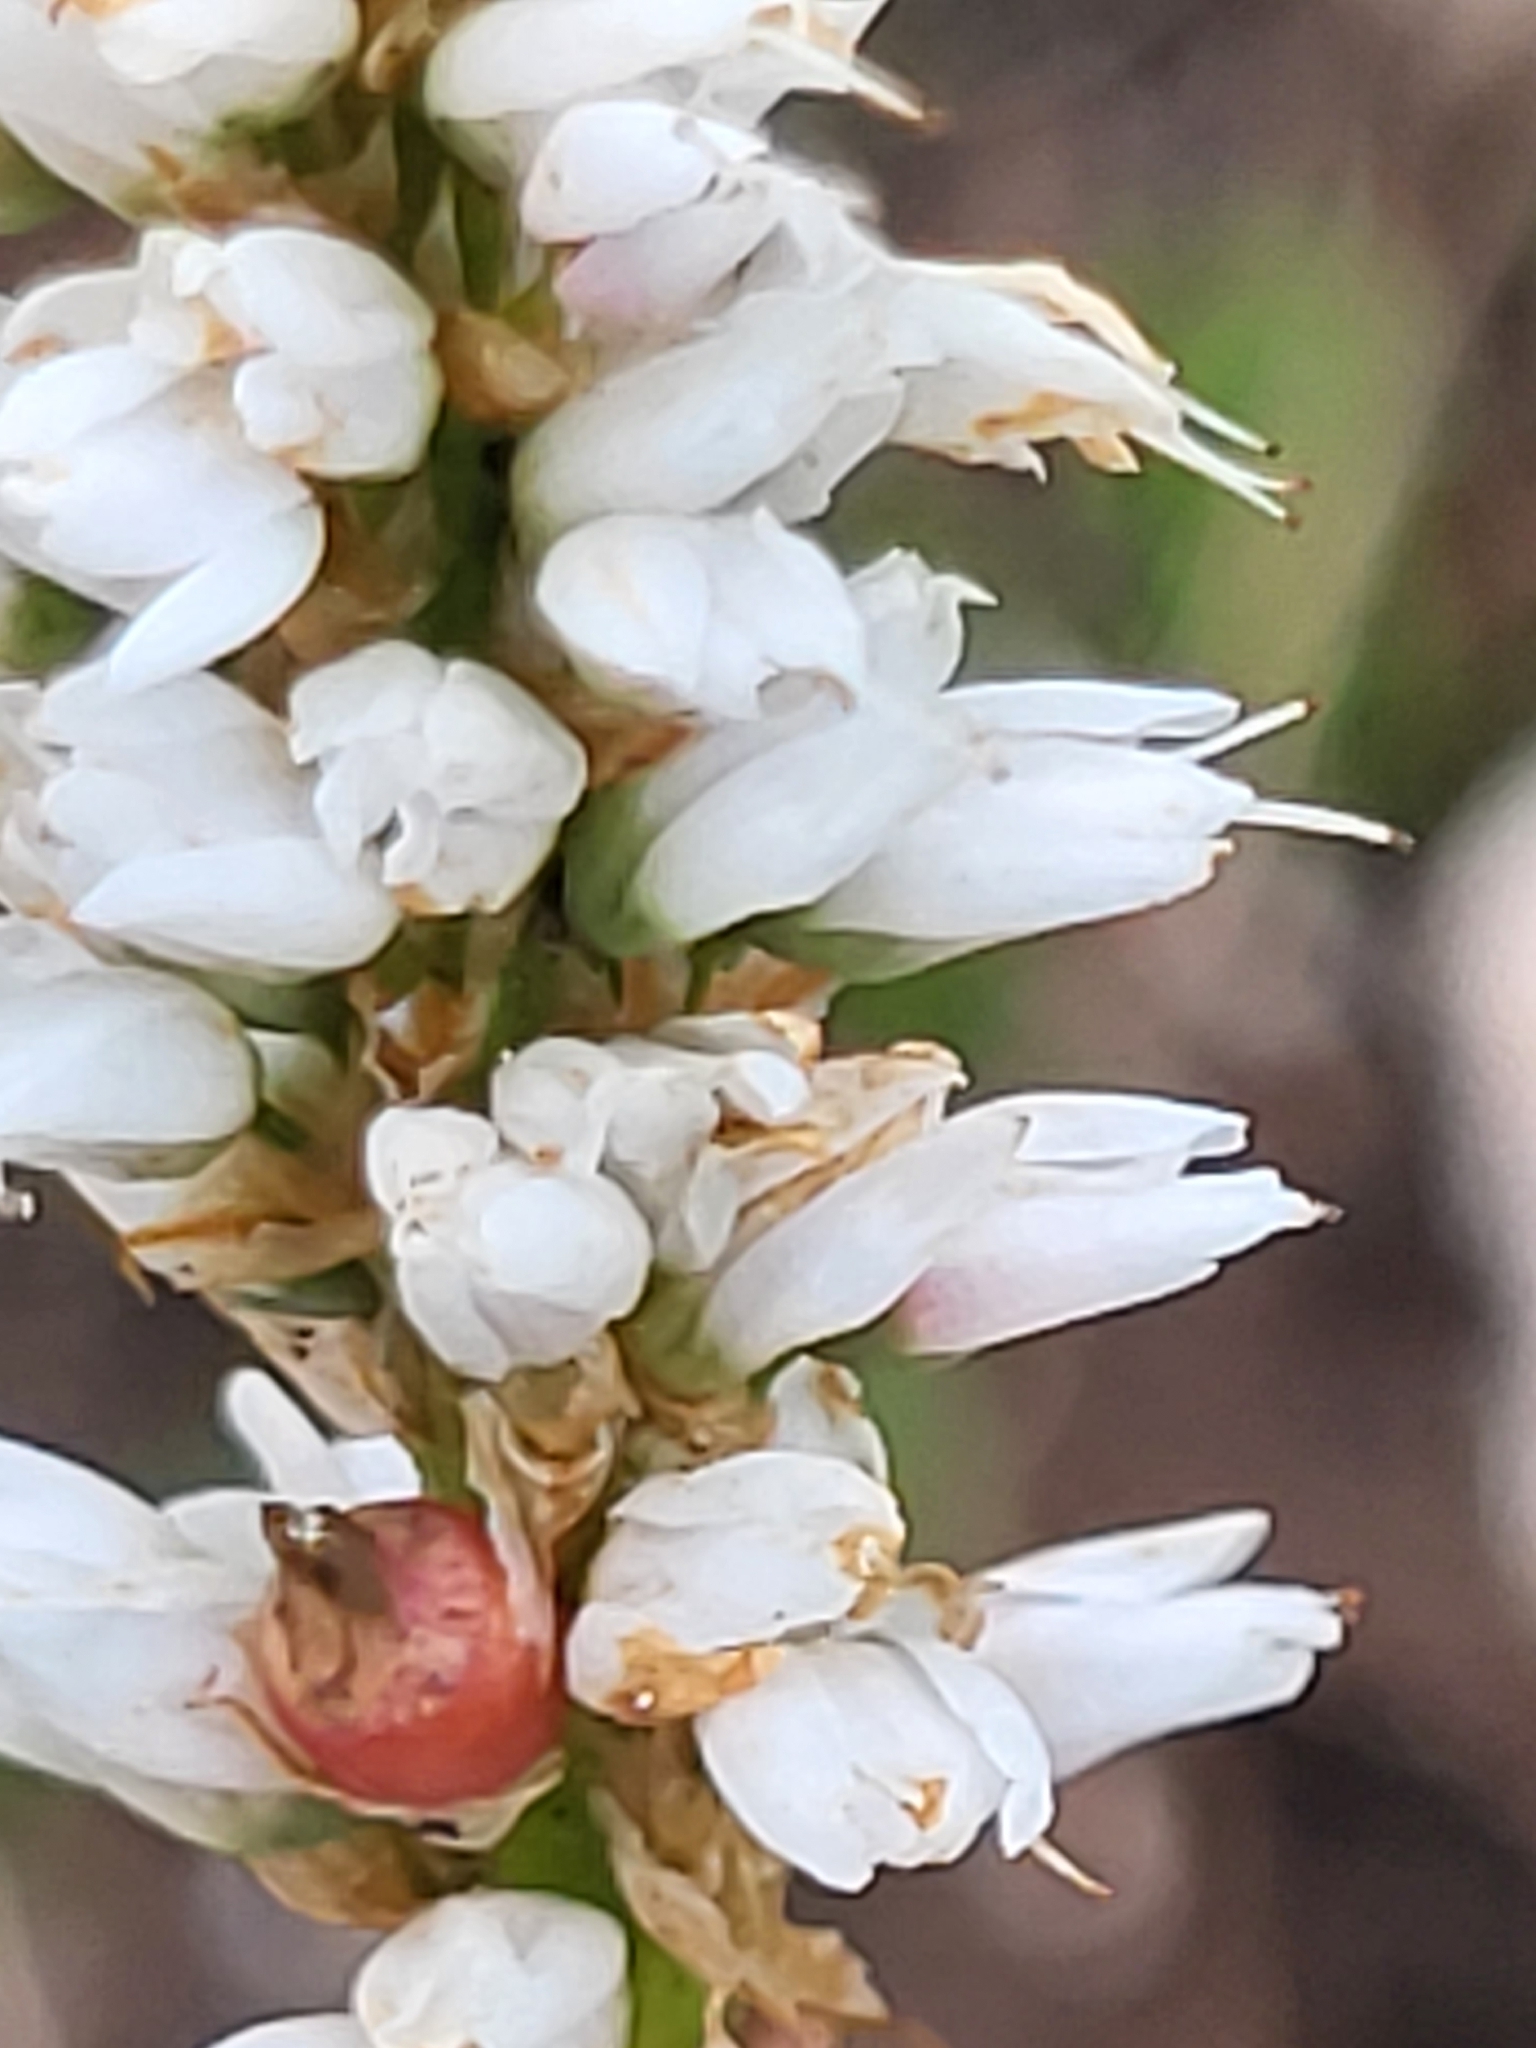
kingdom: Plantae
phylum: Tracheophyta
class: Magnoliopsida
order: Caryophyllales
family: Polygonaceae
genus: Bistorta
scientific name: Bistorta vivipara
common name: Alpine bistort
